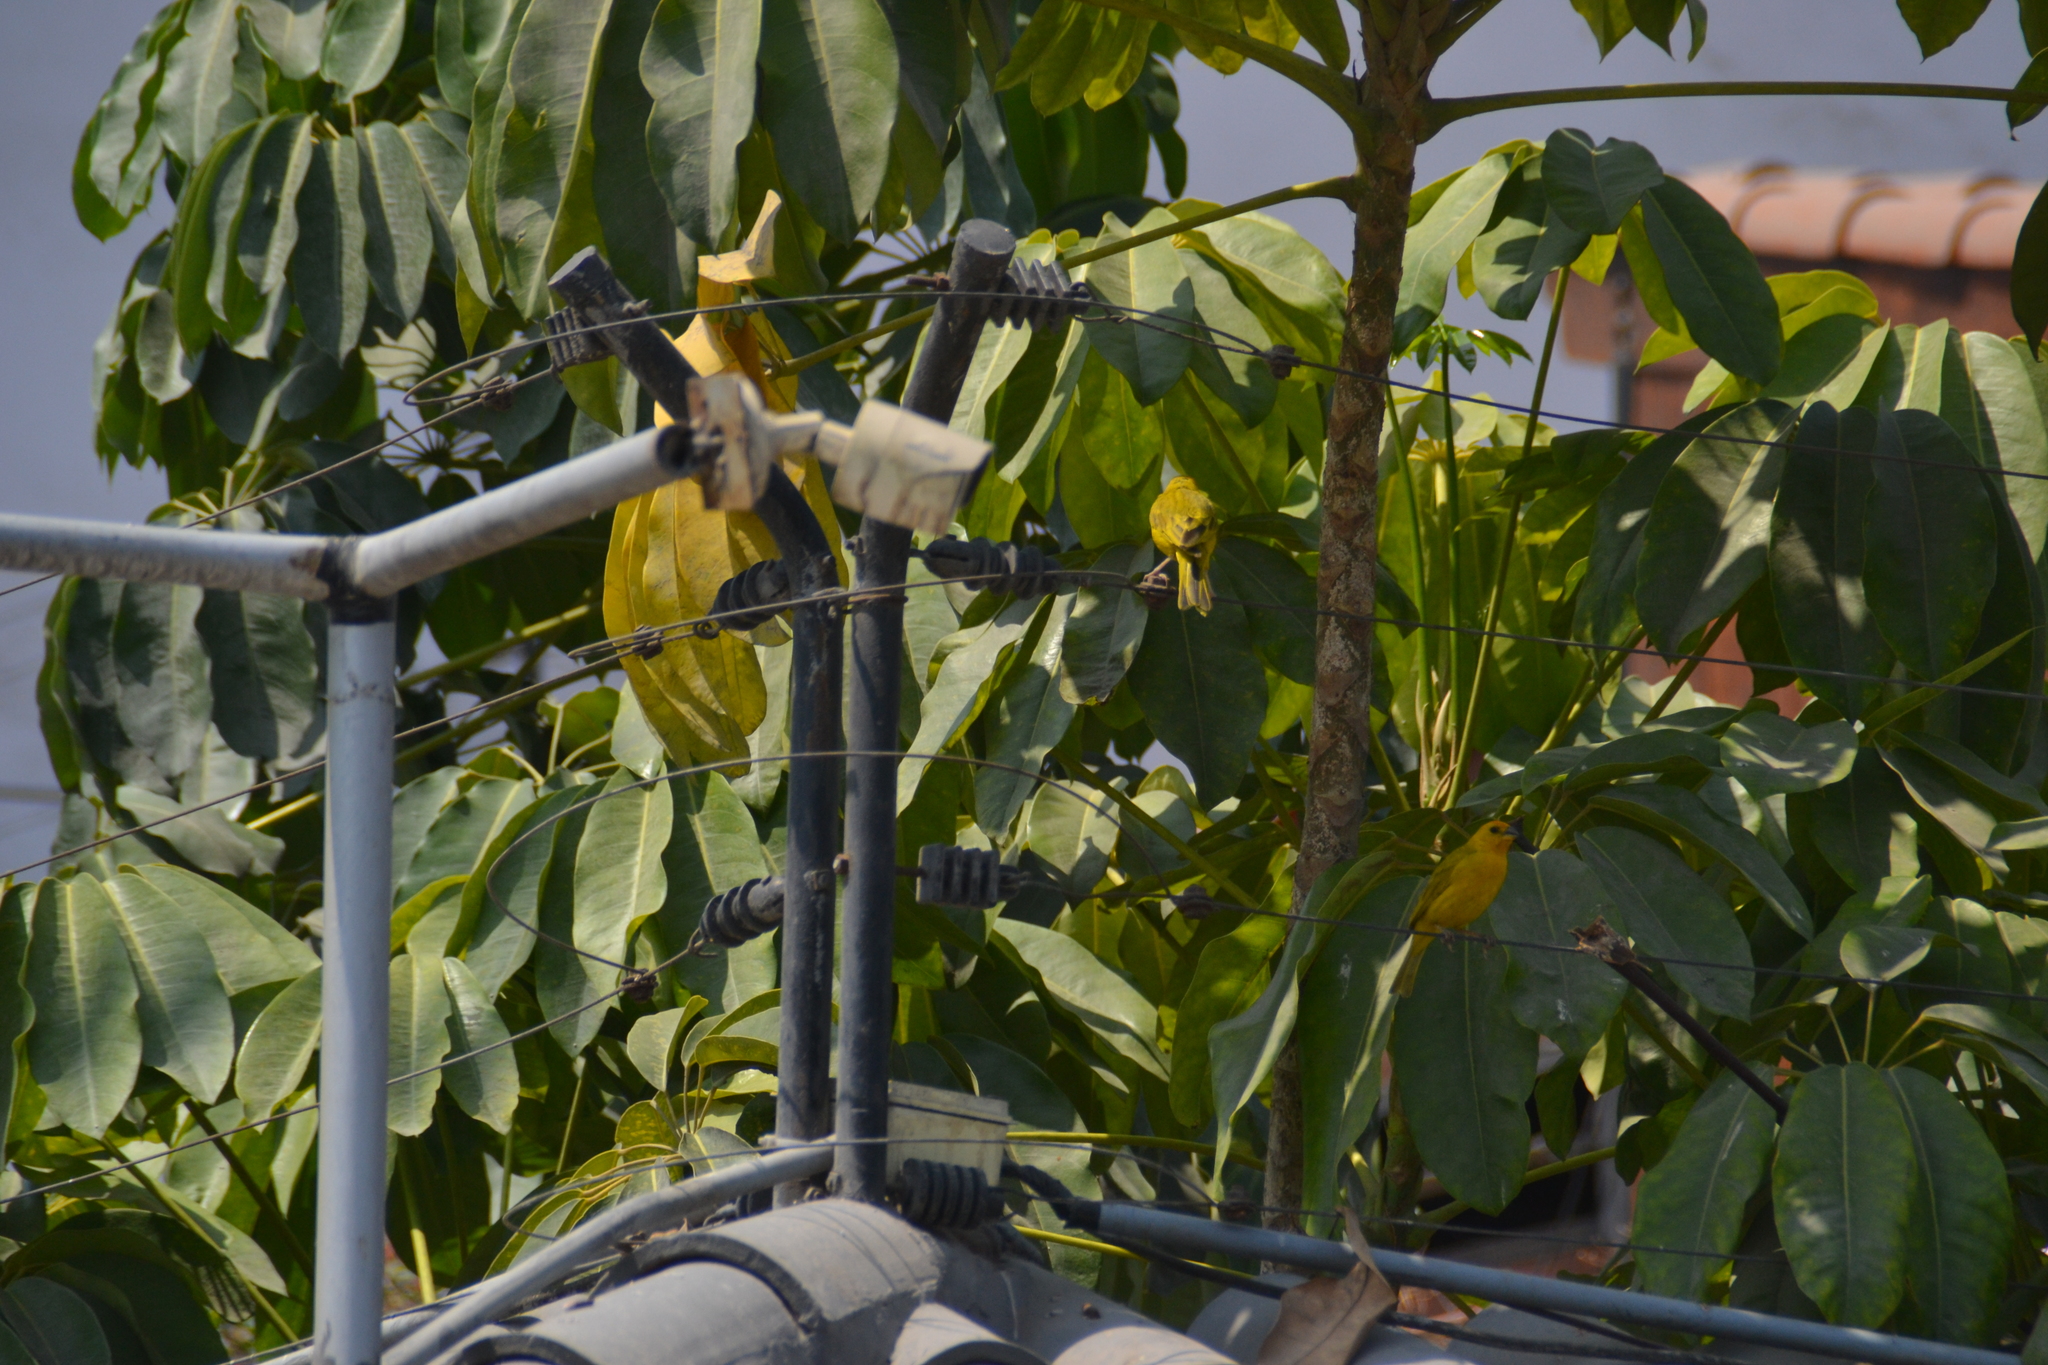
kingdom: Animalia
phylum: Chordata
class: Aves
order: Passeriformes
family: Thraupidae
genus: Sicalis
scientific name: Sicalis flaveola
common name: Saffron finch
